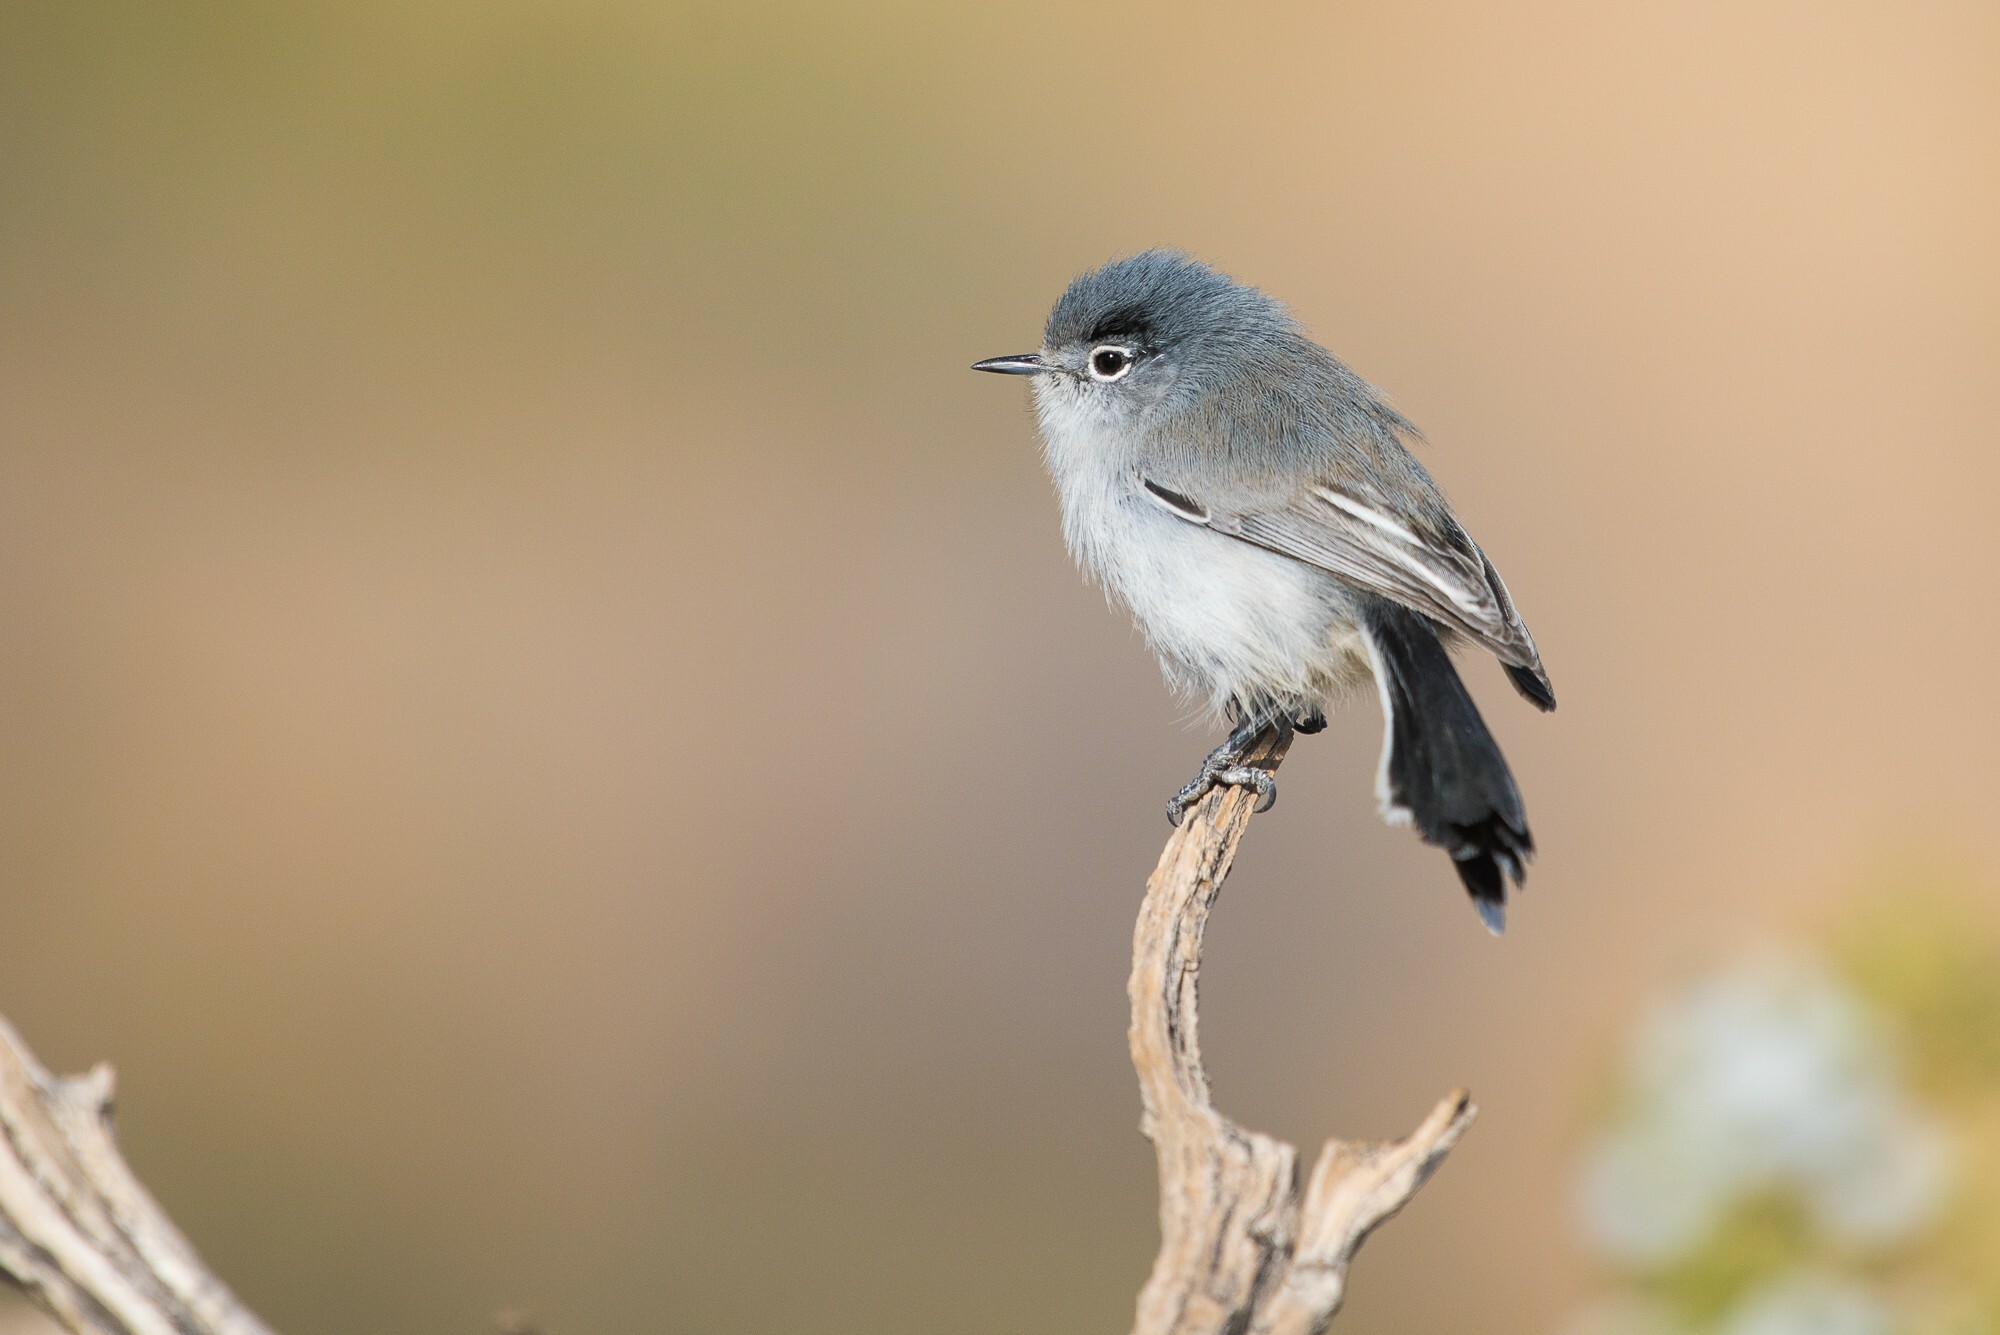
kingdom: Animalia
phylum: Chordata
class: Aves
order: Passeriformes
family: Polioptilidae
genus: Polioptila
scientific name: Polioptila melanura
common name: Black-tailed gnatcatcher
